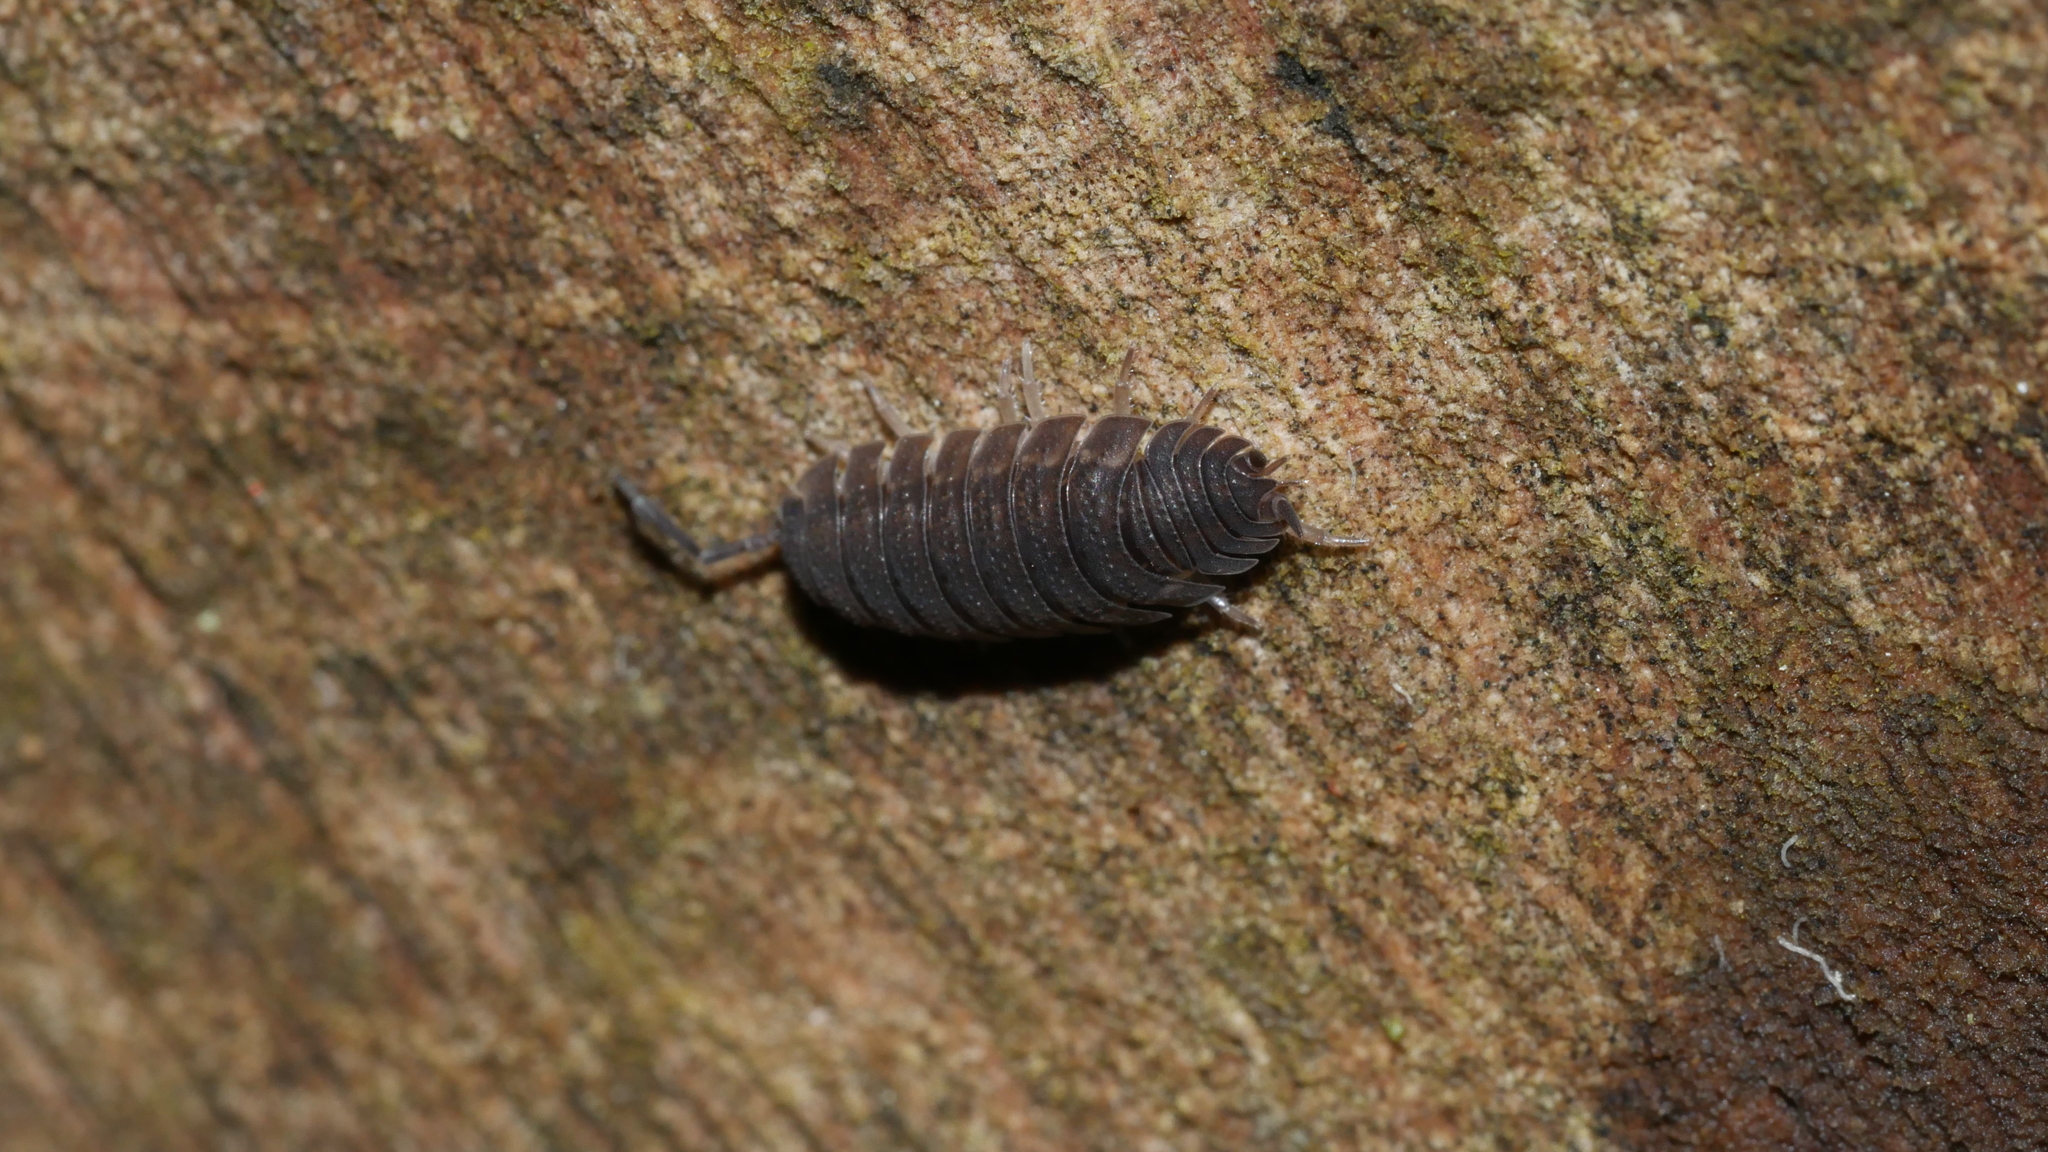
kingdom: Animalia
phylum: Arthropoda
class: Malacostraca
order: Isopoda
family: Porcellionidae
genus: Porcellio
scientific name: Porcellio scaber
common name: Common rough woodlouse
